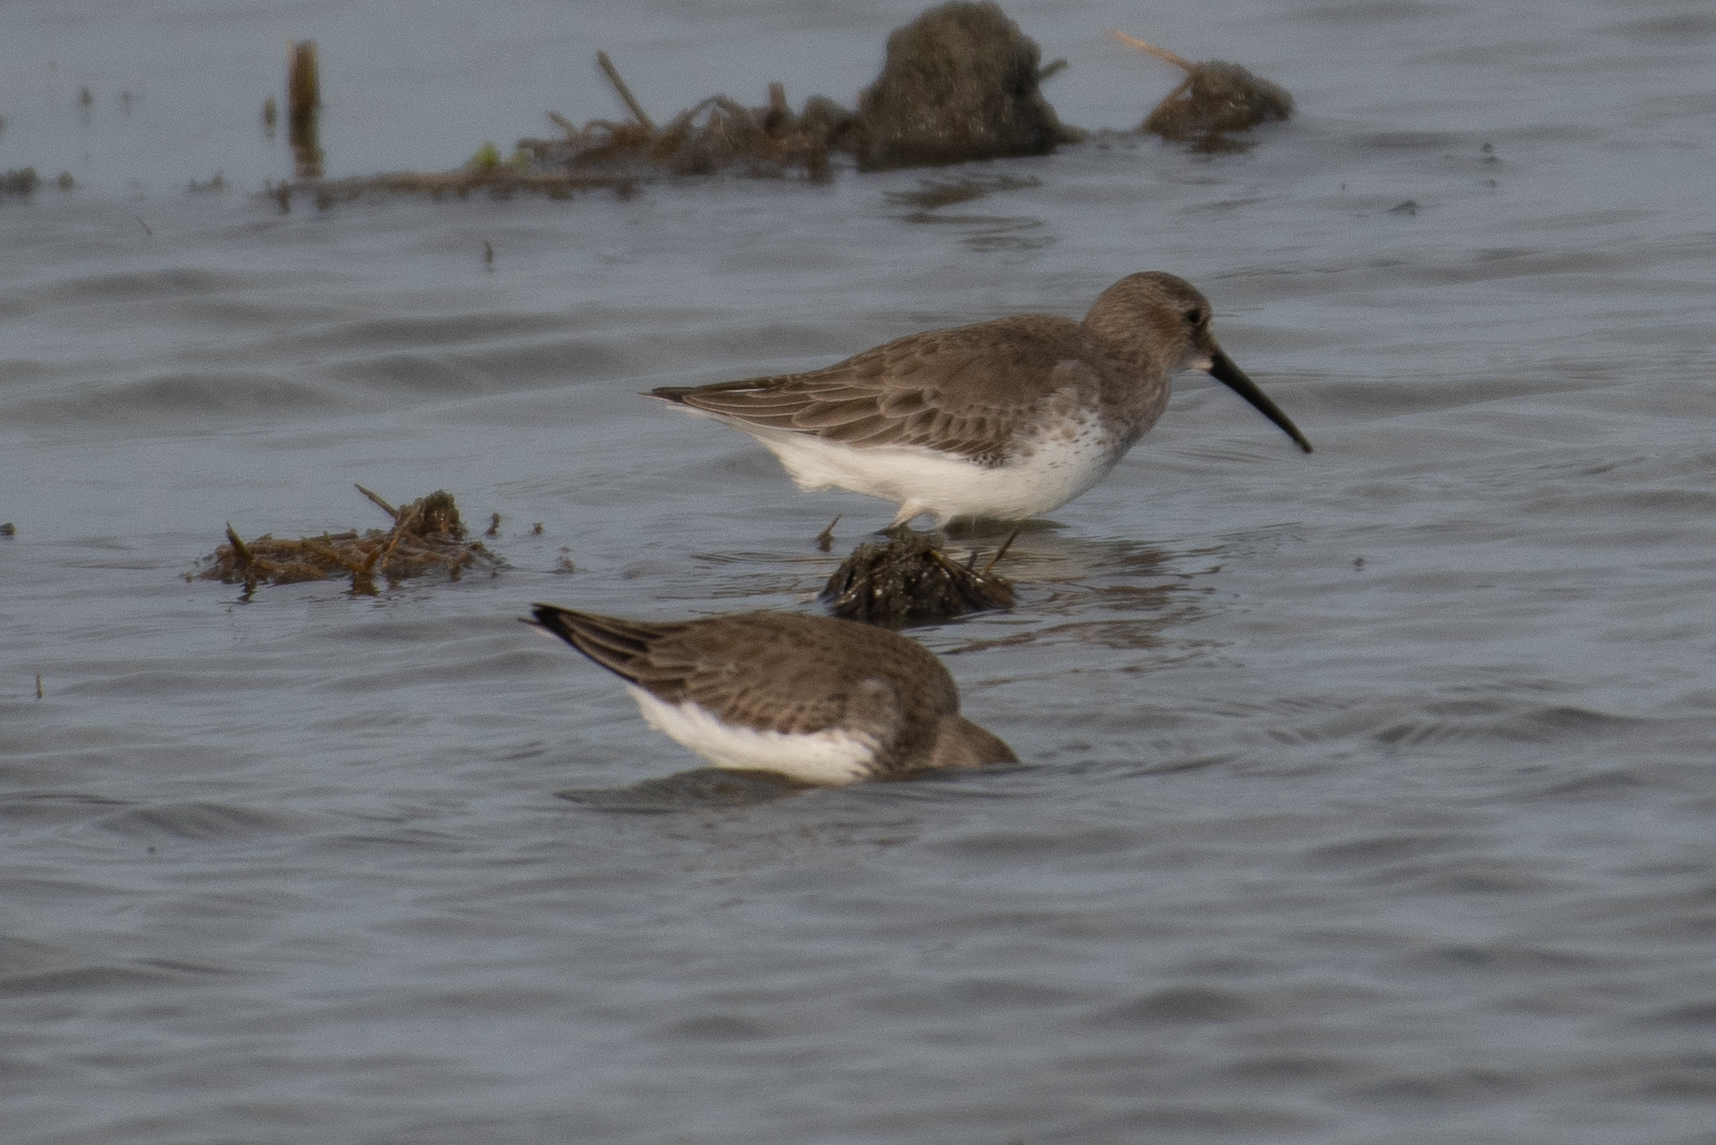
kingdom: Animalia
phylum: Chordata
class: Aves
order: Charadriiformes
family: Scolopacidae
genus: Calidris
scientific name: Calidris alpina
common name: Dunlin
